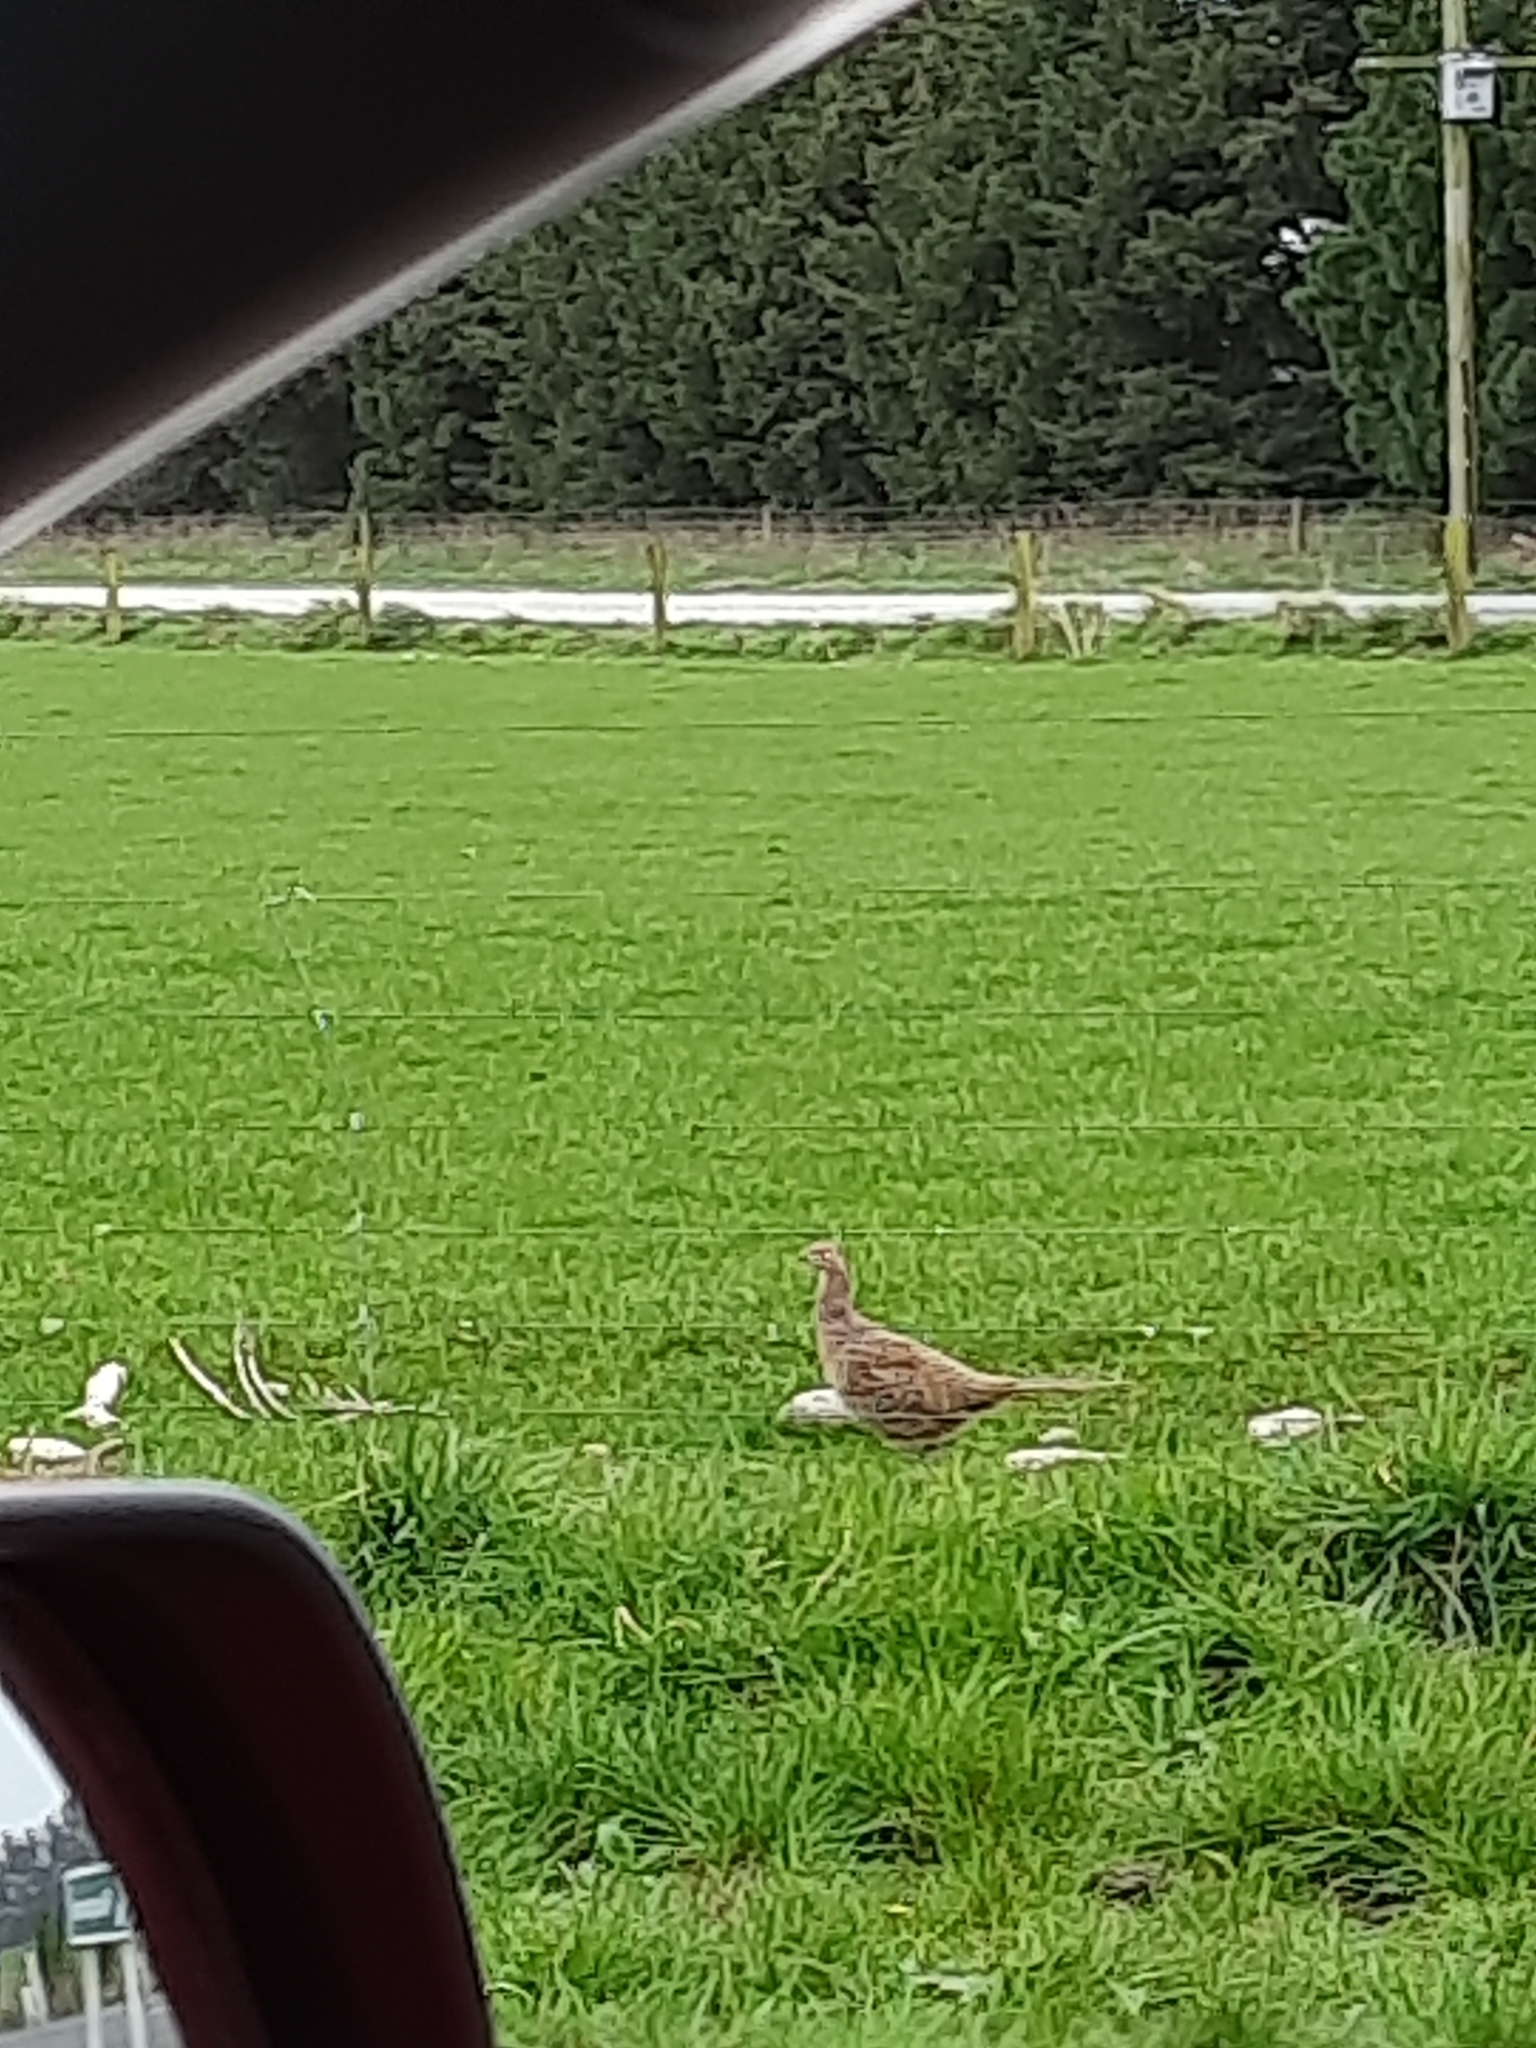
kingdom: Animalia
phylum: Chordata
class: Aves
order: Galliformes
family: Phasianidae
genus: Phasianus
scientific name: Phasianus colchicus
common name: Common pheasant
